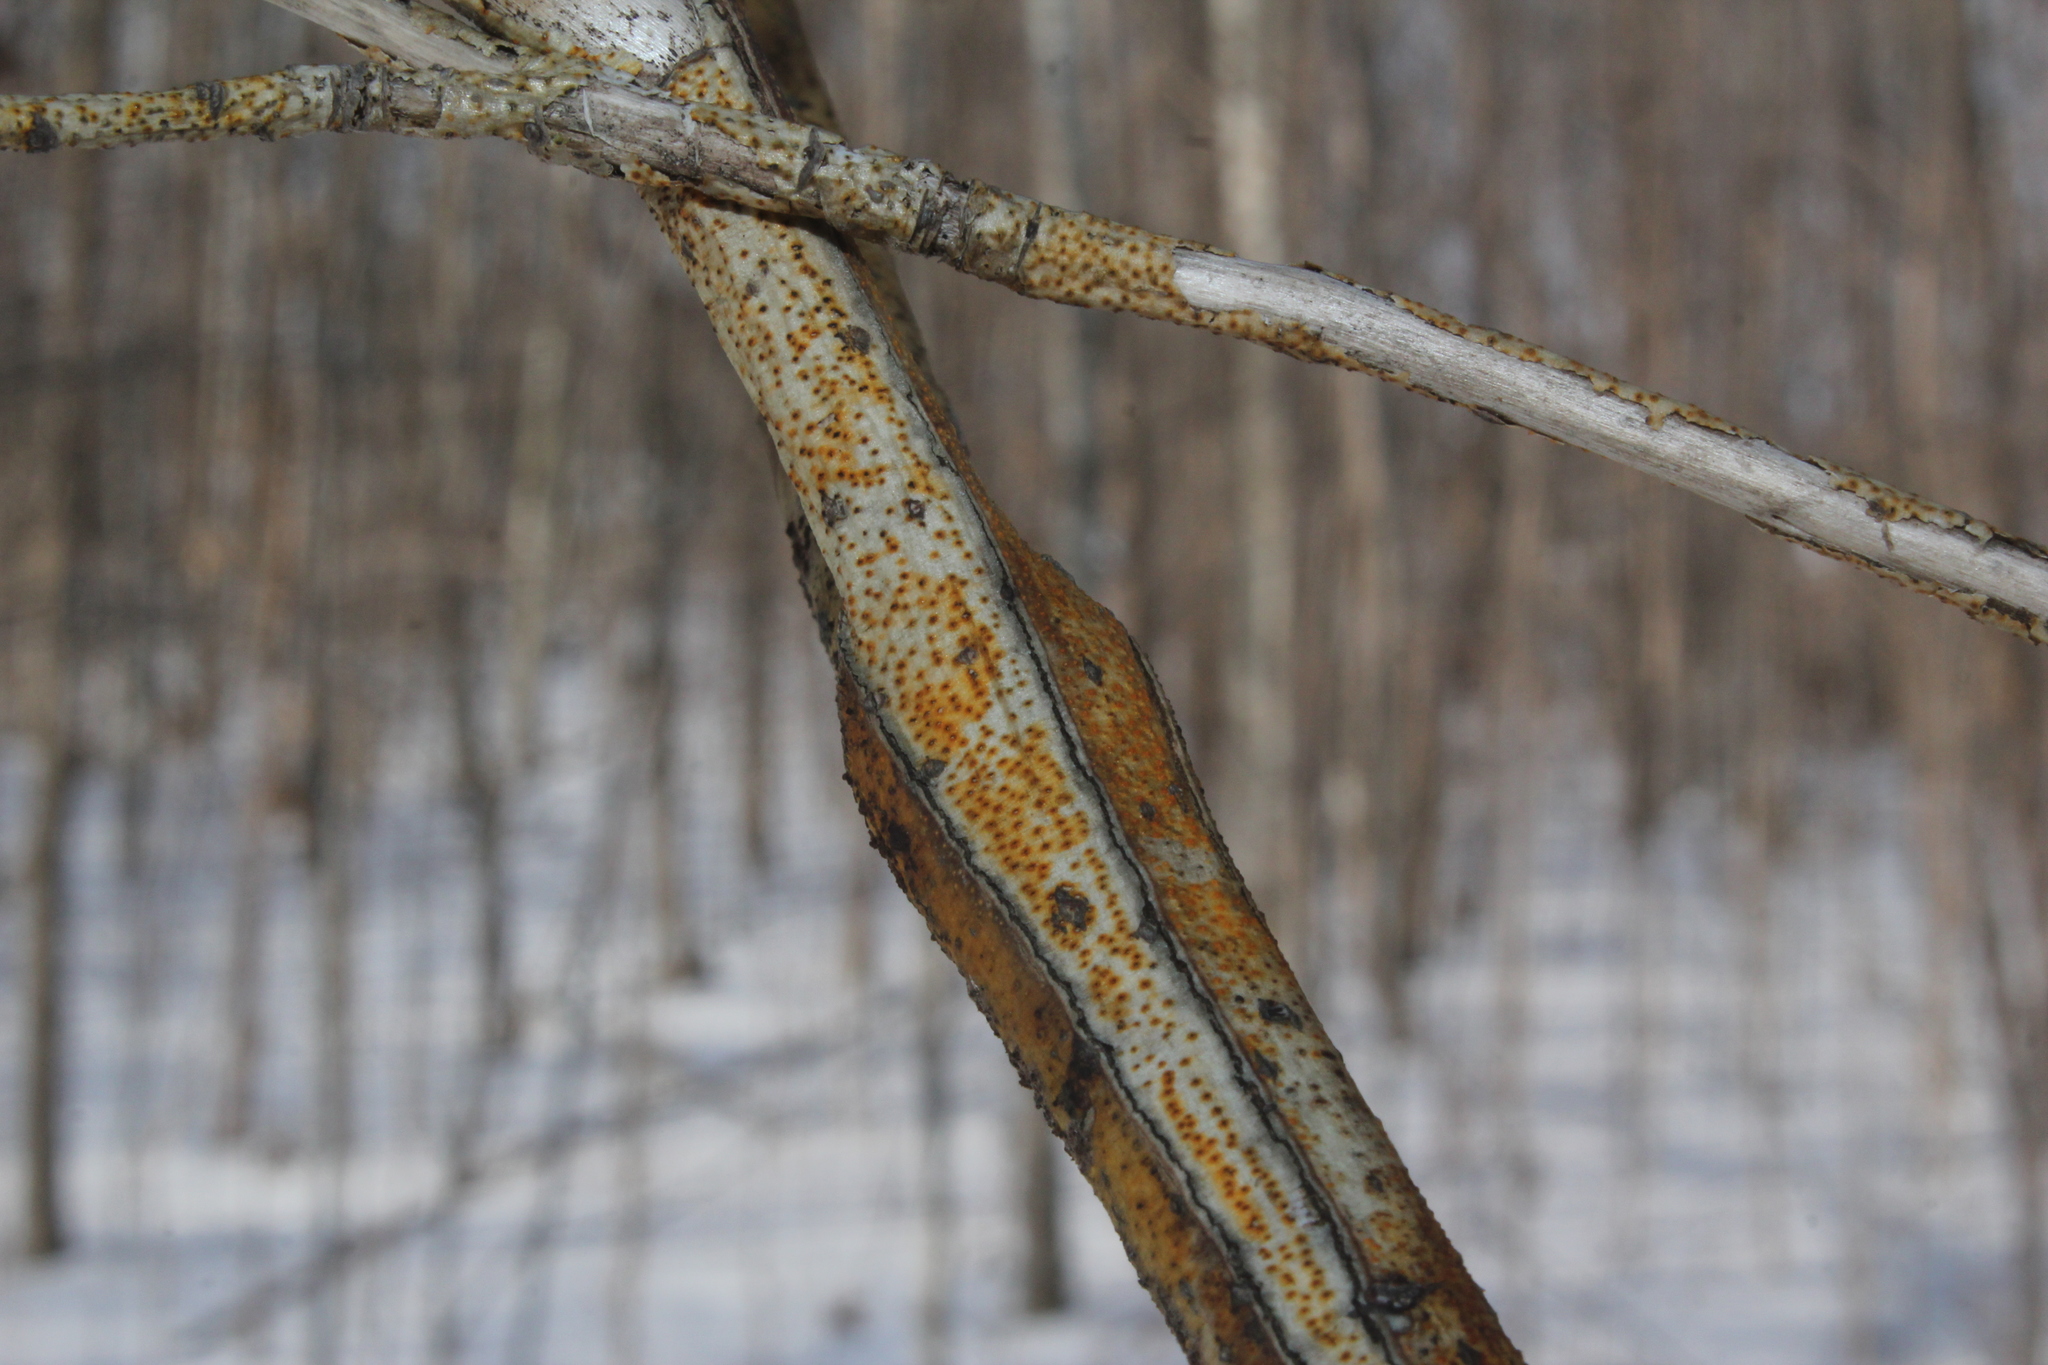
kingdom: Fungi
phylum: Ascomycota
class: Sordariomycetes
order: Diaporthales
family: Cryphonectriaceae
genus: Aurantioporthe
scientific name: Aurantioporthe corni
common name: Dogwood golden canker
